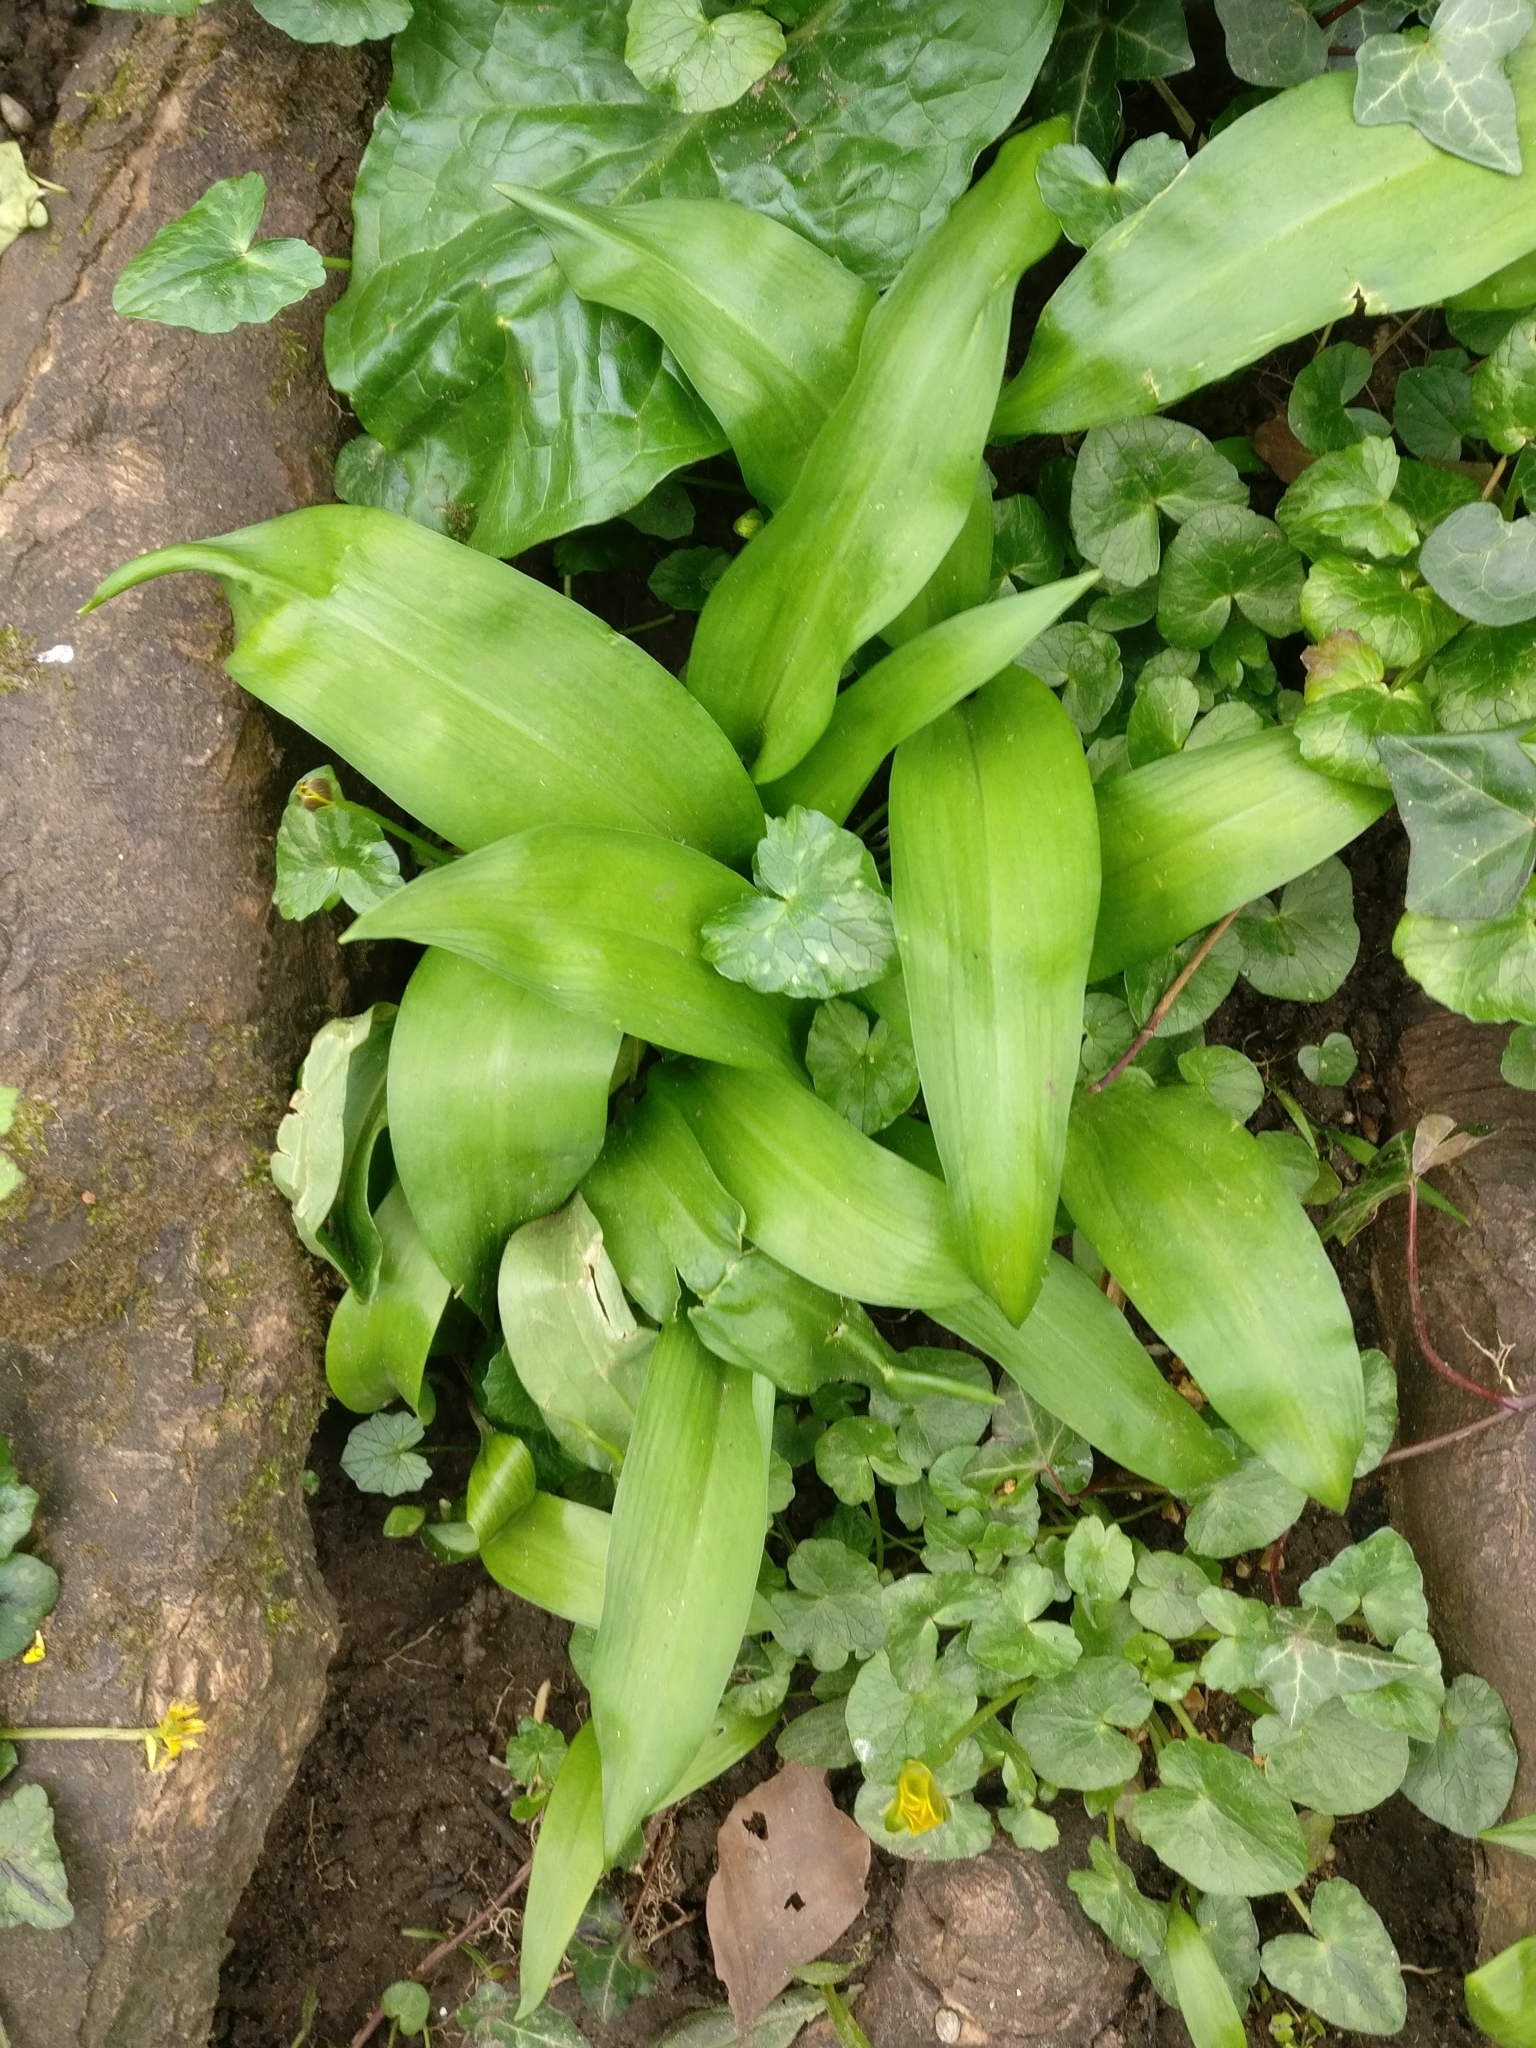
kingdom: Plantae
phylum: Tracheophyta
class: Liliopsida
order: Asparagales
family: Amaryllidaceae
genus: Allium
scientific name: Allium ursinum
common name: Ramsons
